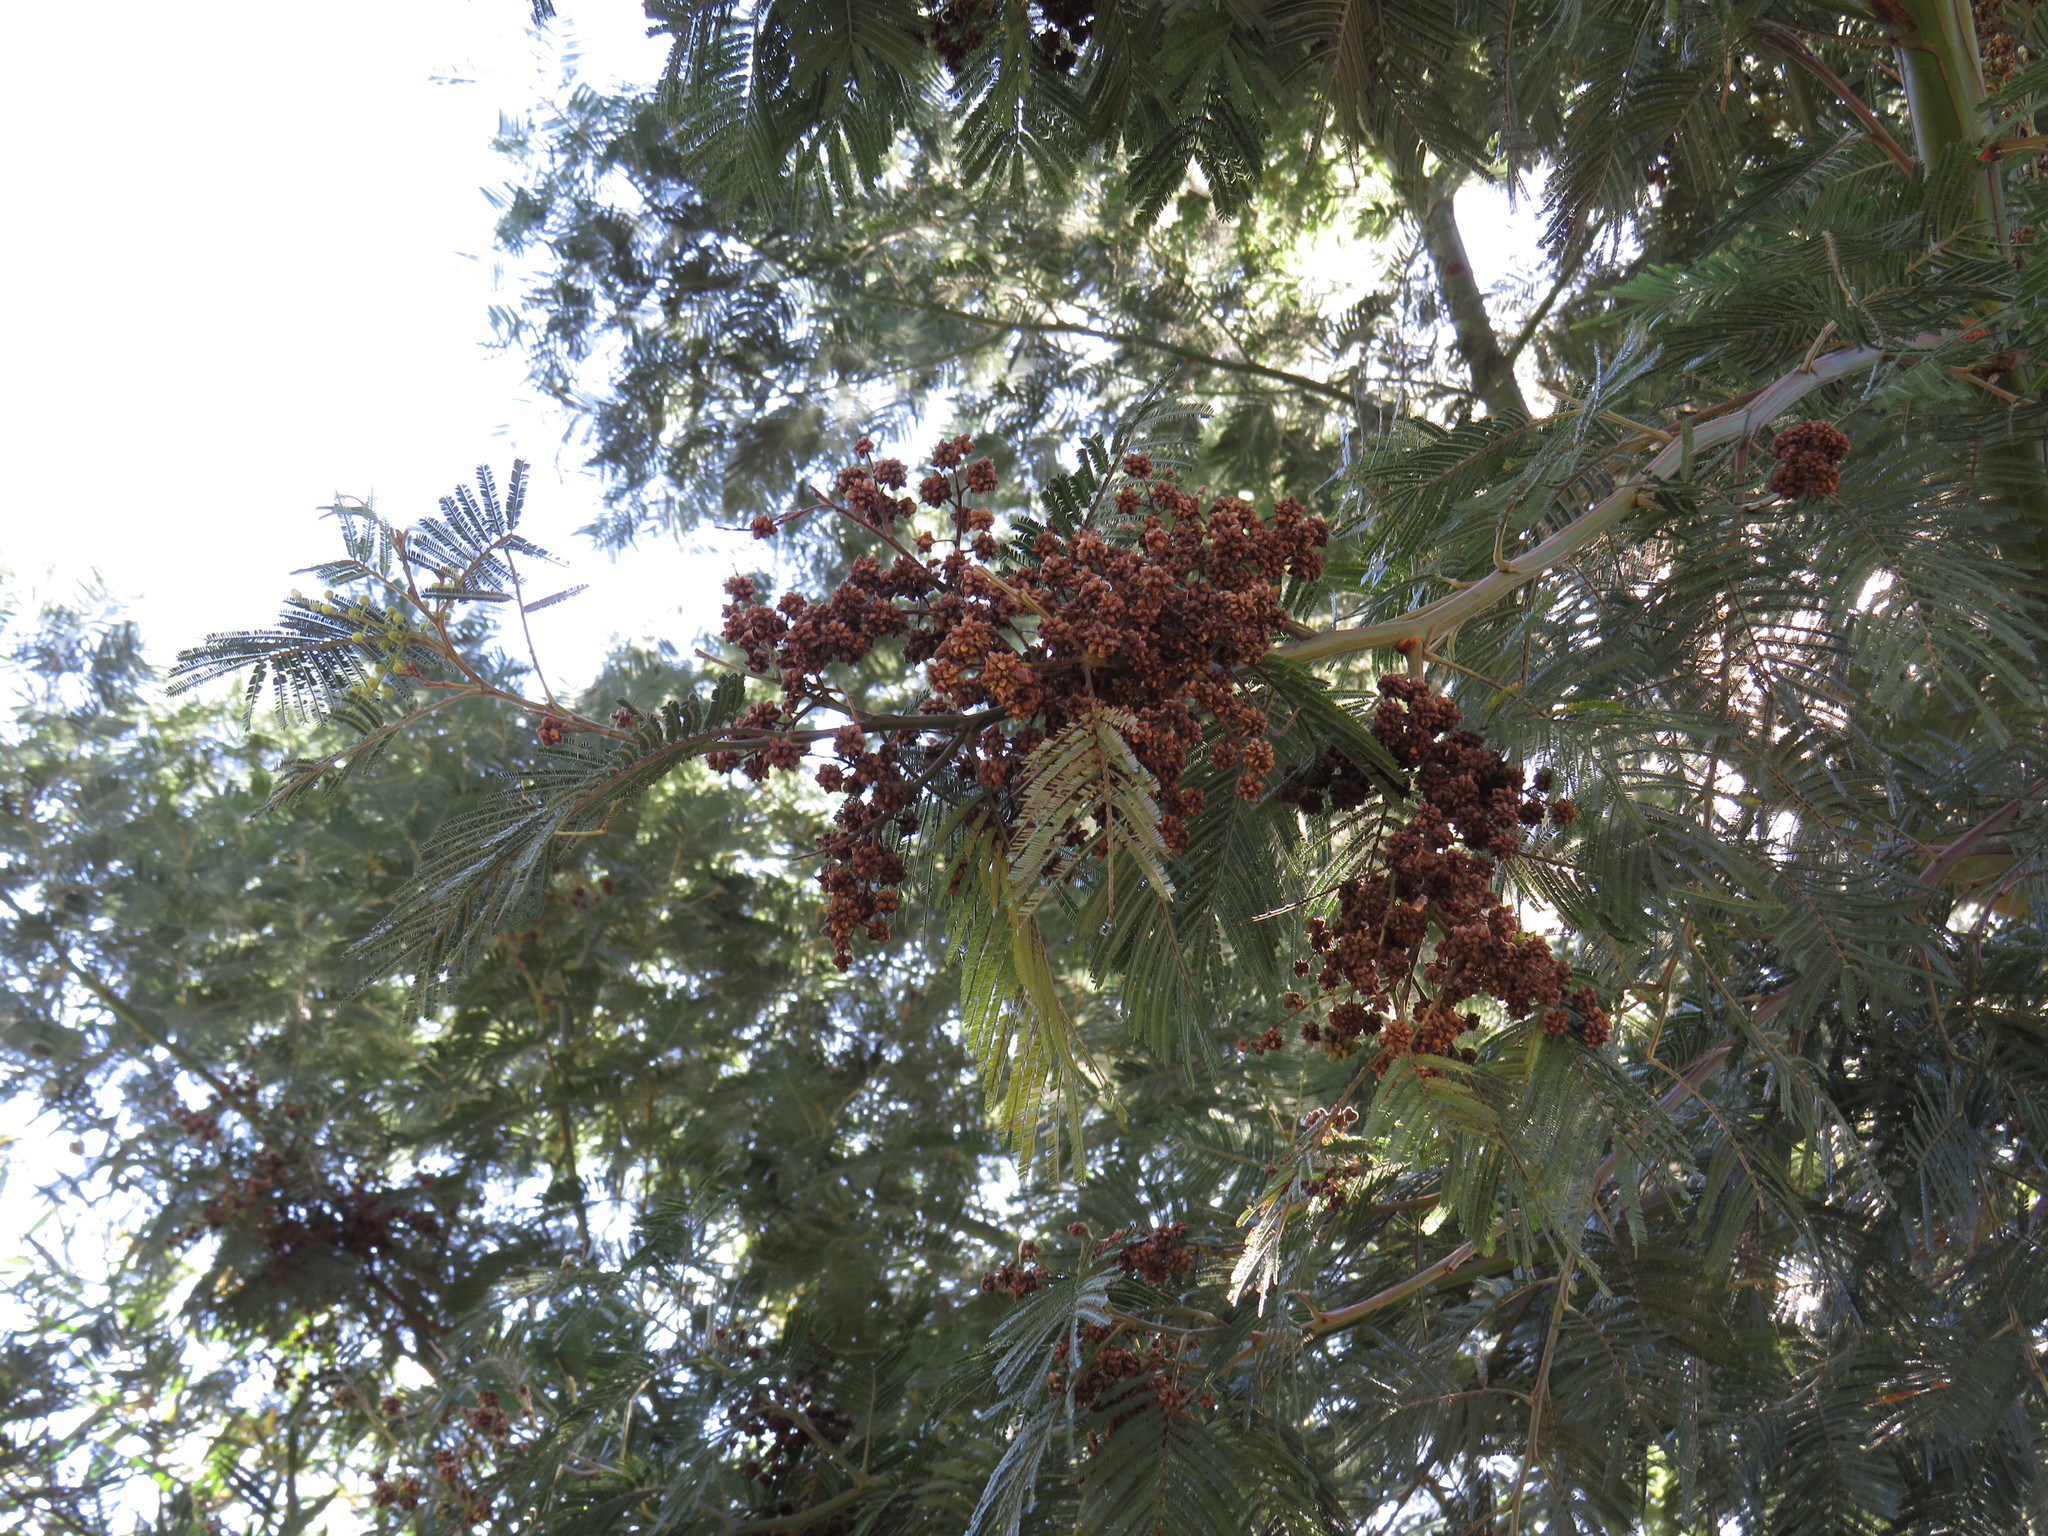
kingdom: Plantae
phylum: Tracheophyta
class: Magnoliopsida
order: Fabales
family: Fabaceae
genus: Acacia
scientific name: Acacia mearnsii
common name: Black wattle
